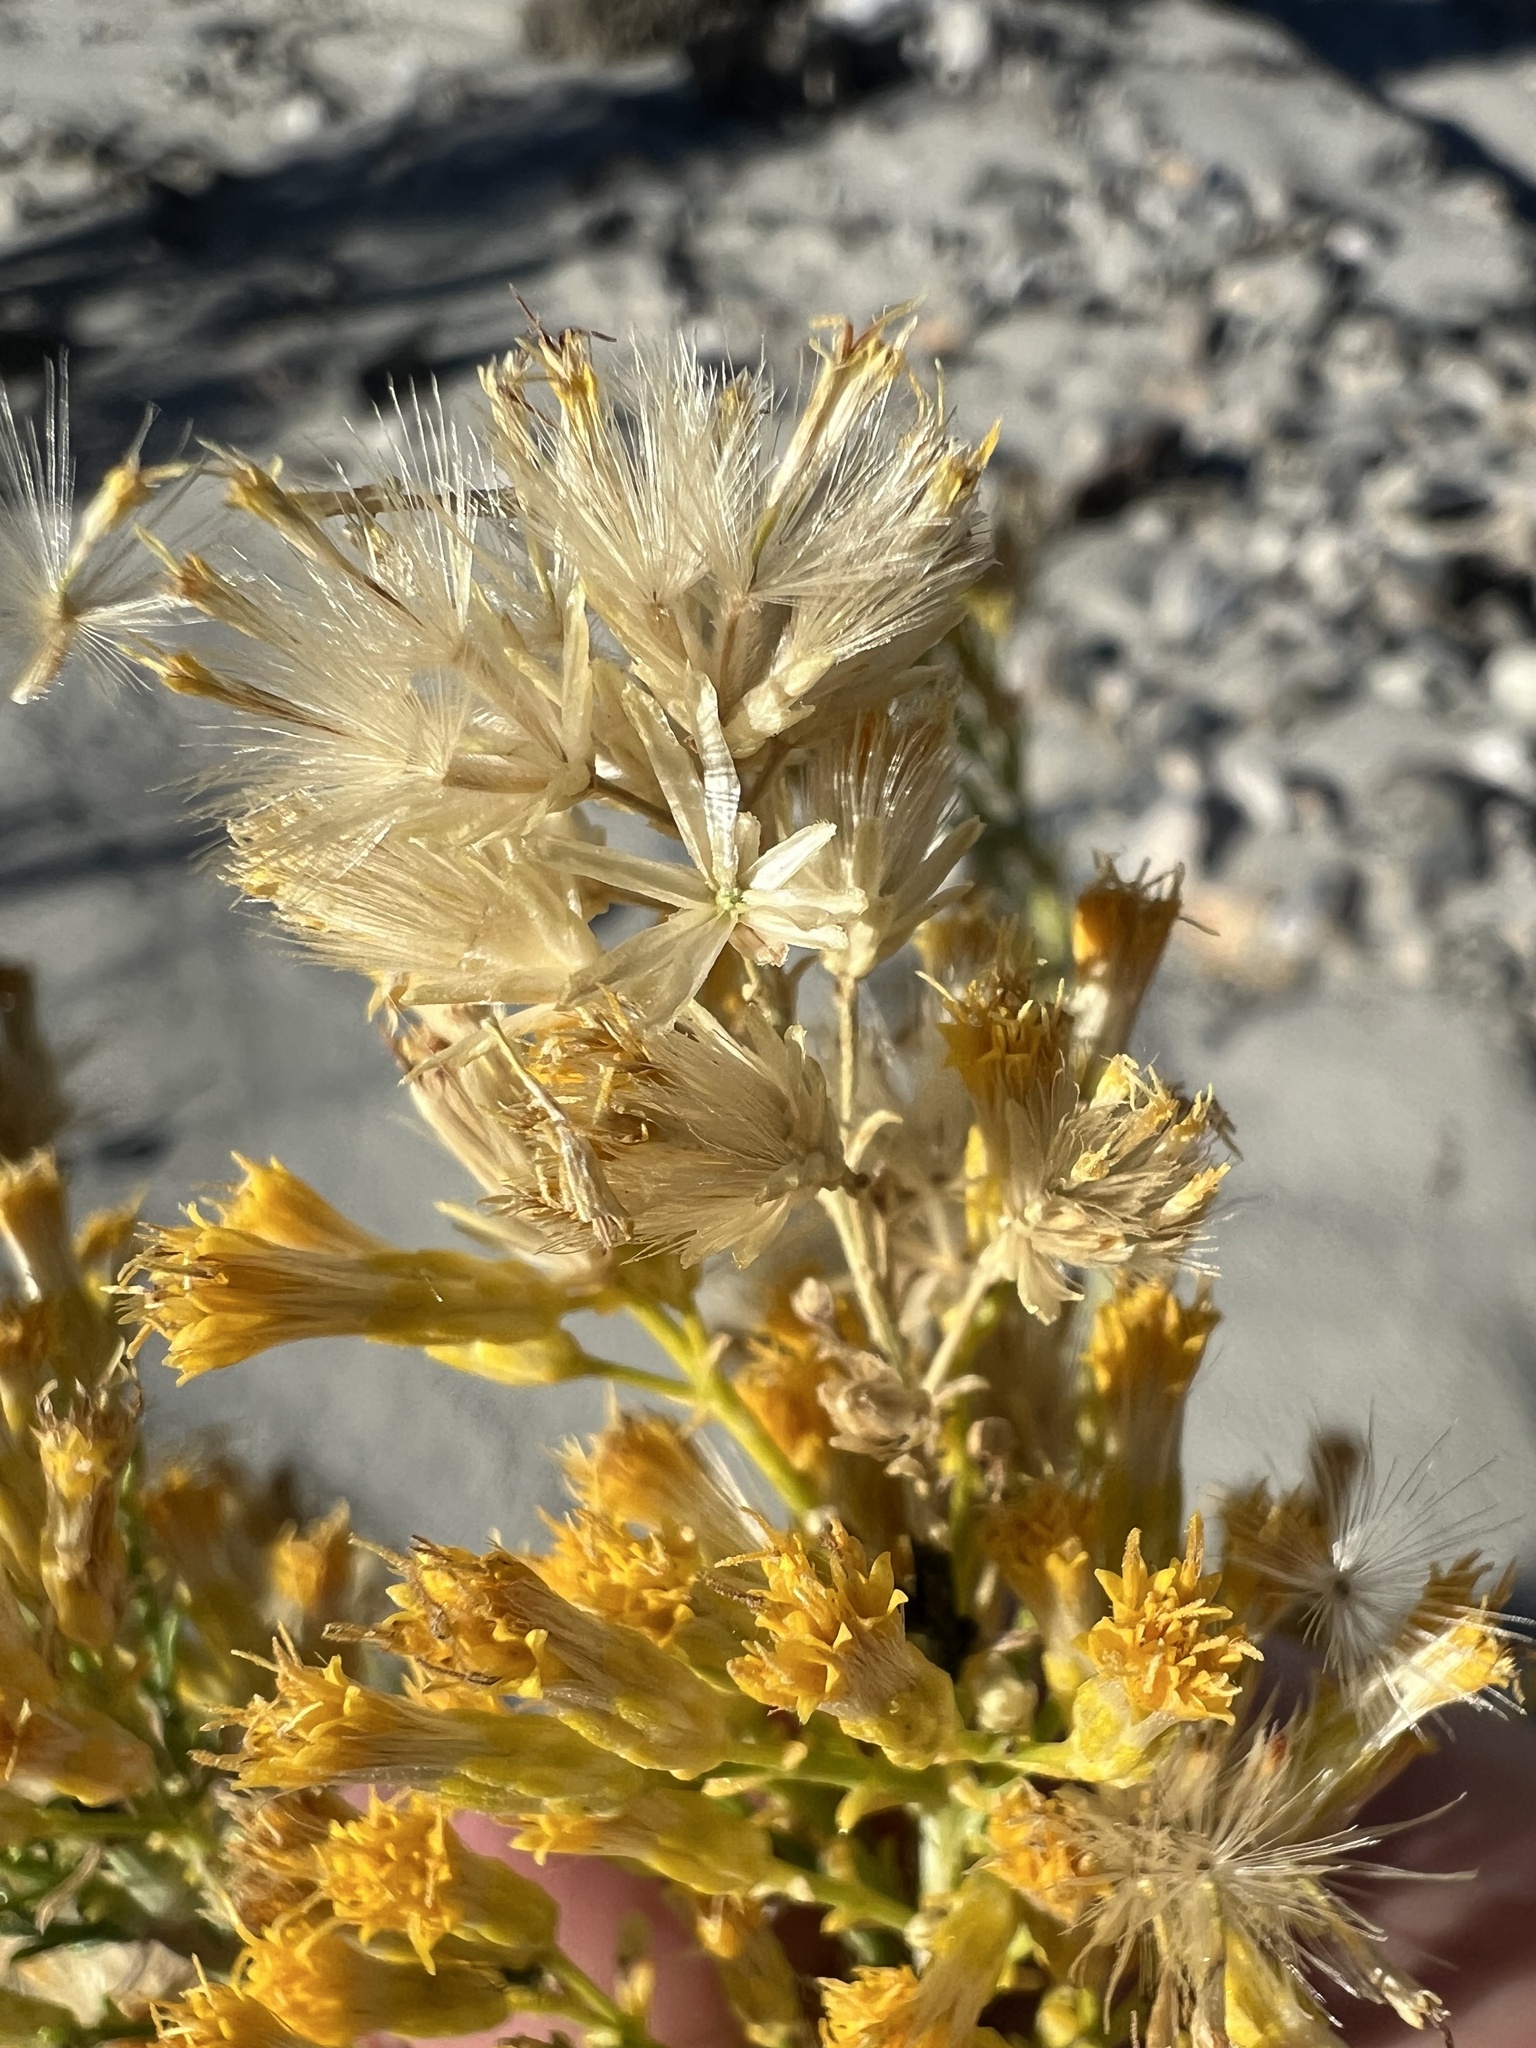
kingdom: Plantae
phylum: Tracheophyta
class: Magnoliopsida
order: Asterales
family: Asteraceae
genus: Ericameria
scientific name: Ericameria paniculata
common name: Punctate rabbitbrush
